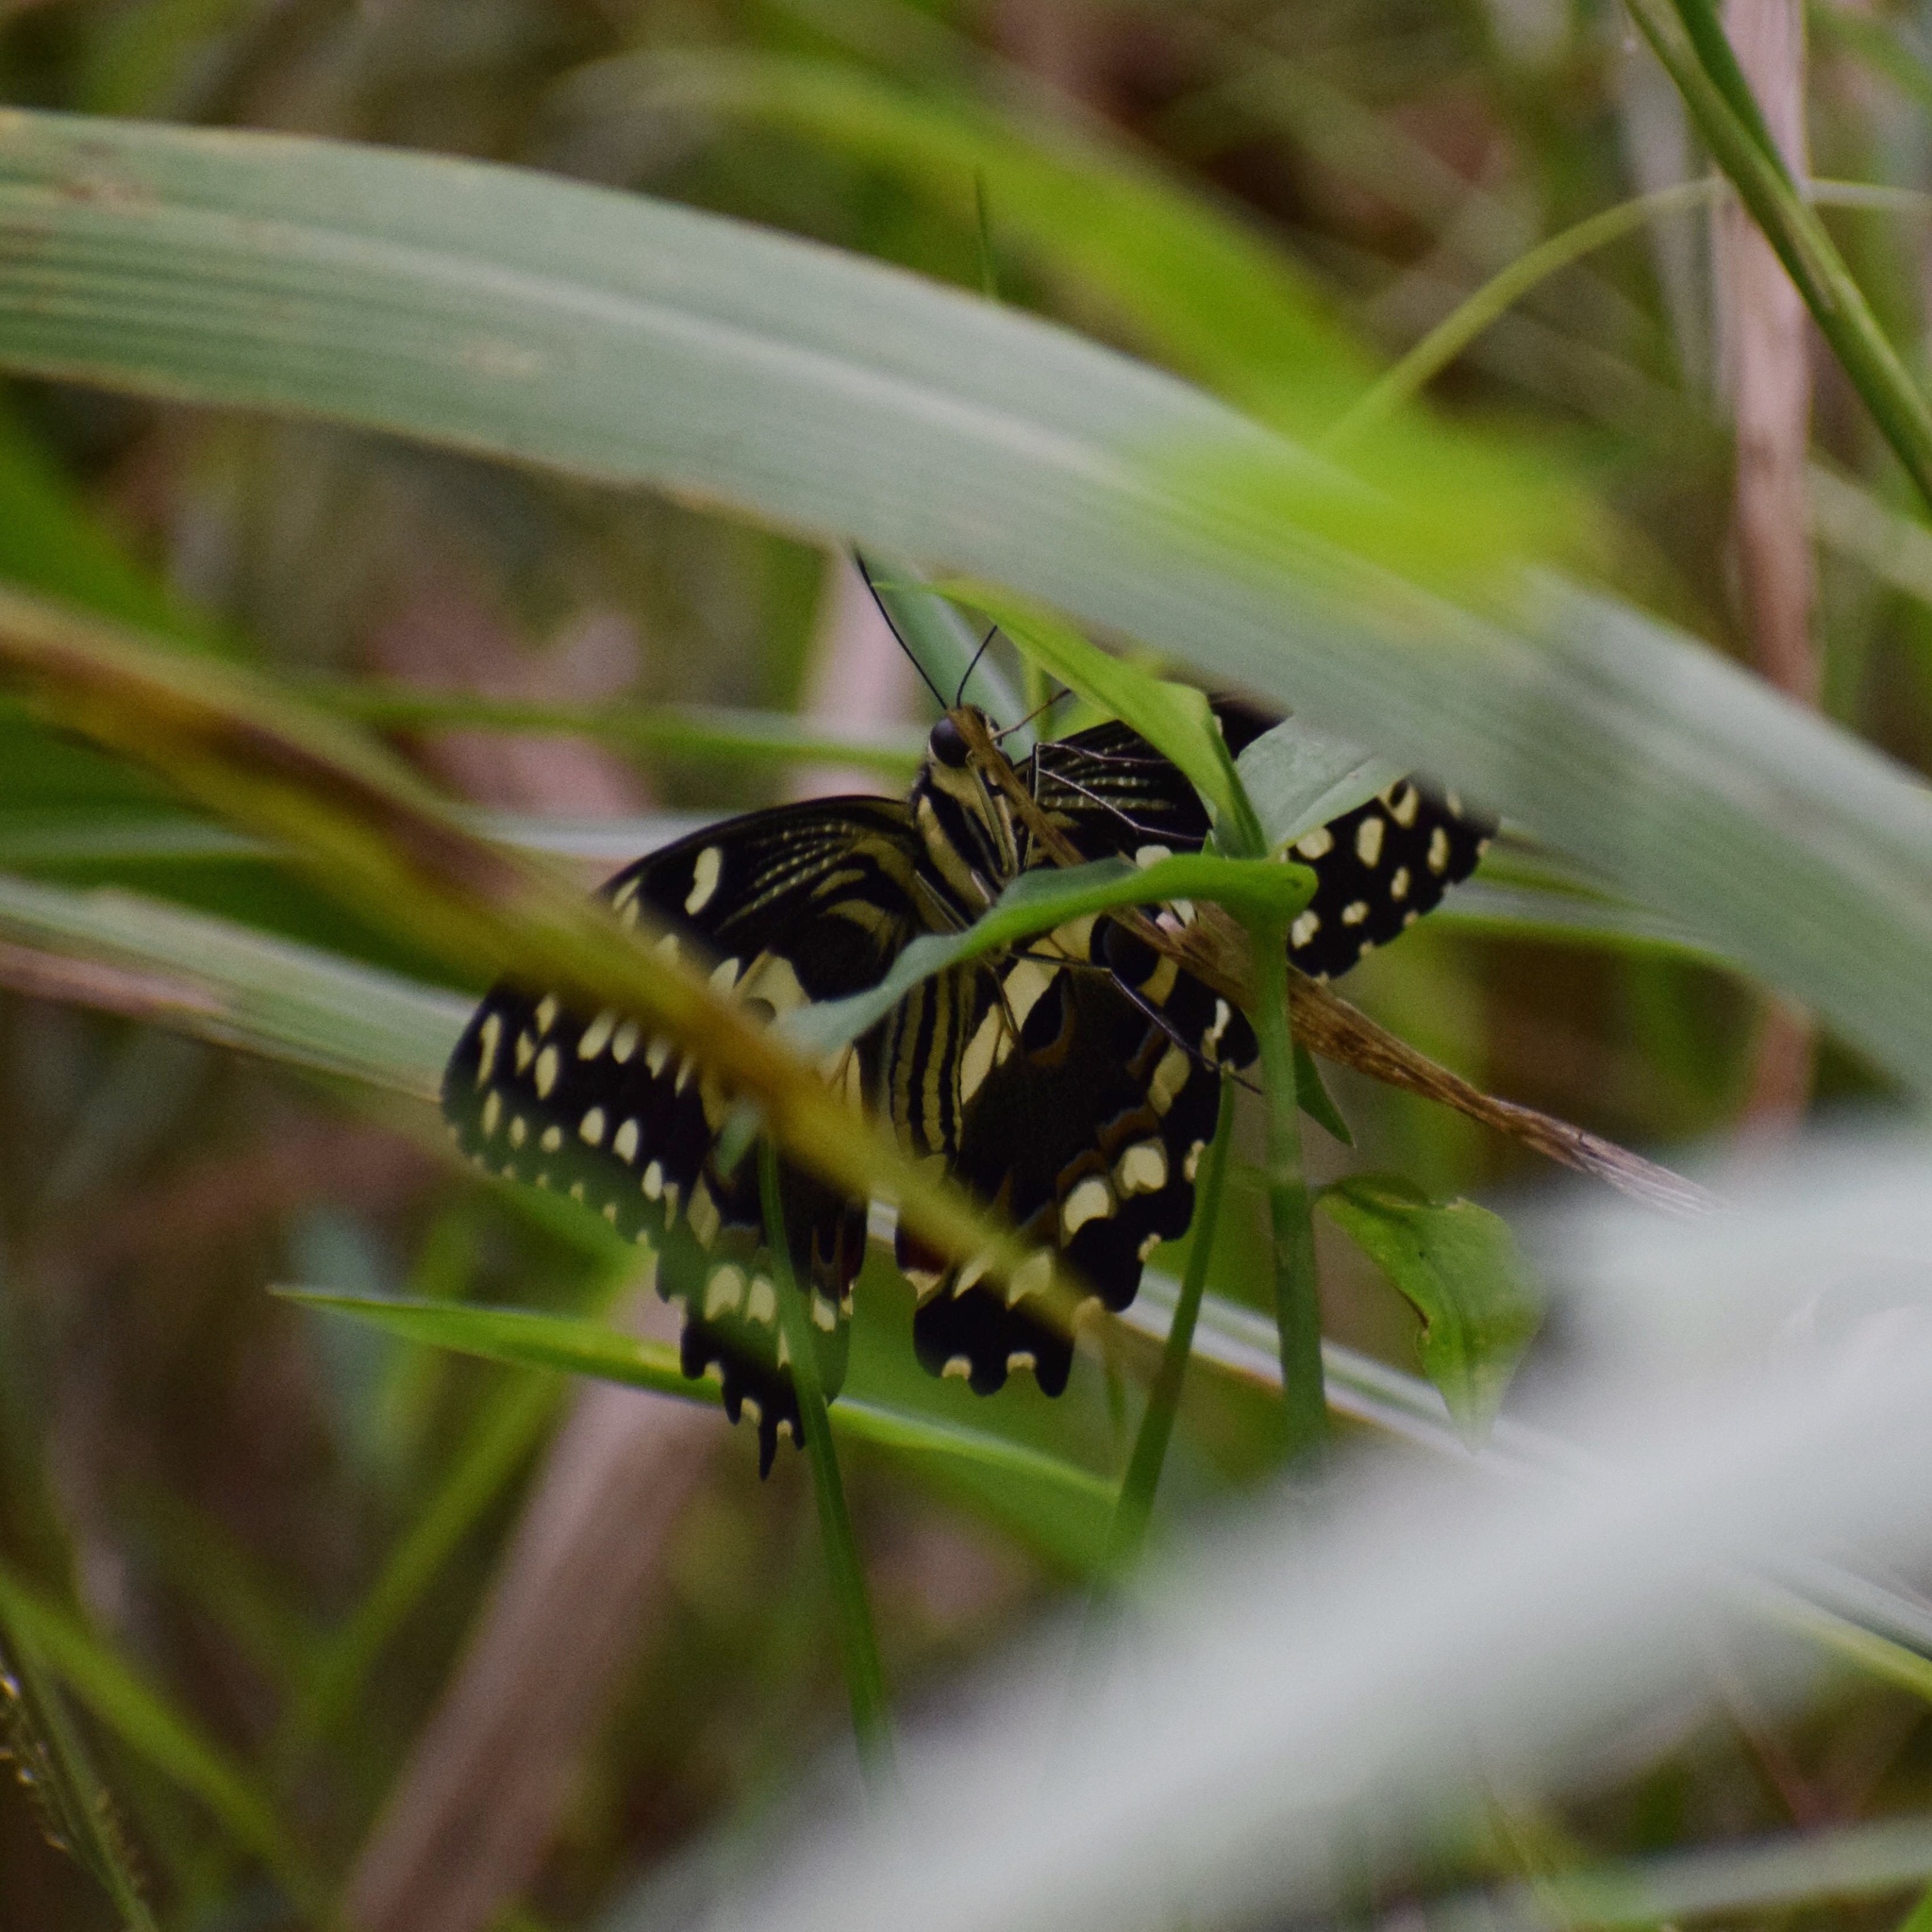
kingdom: Animalia
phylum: Arthropoda
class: Insecta
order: Lepidoptera
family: Papilionidae
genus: Papilio
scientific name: Papilio demodocus
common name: Christmas butterfly
